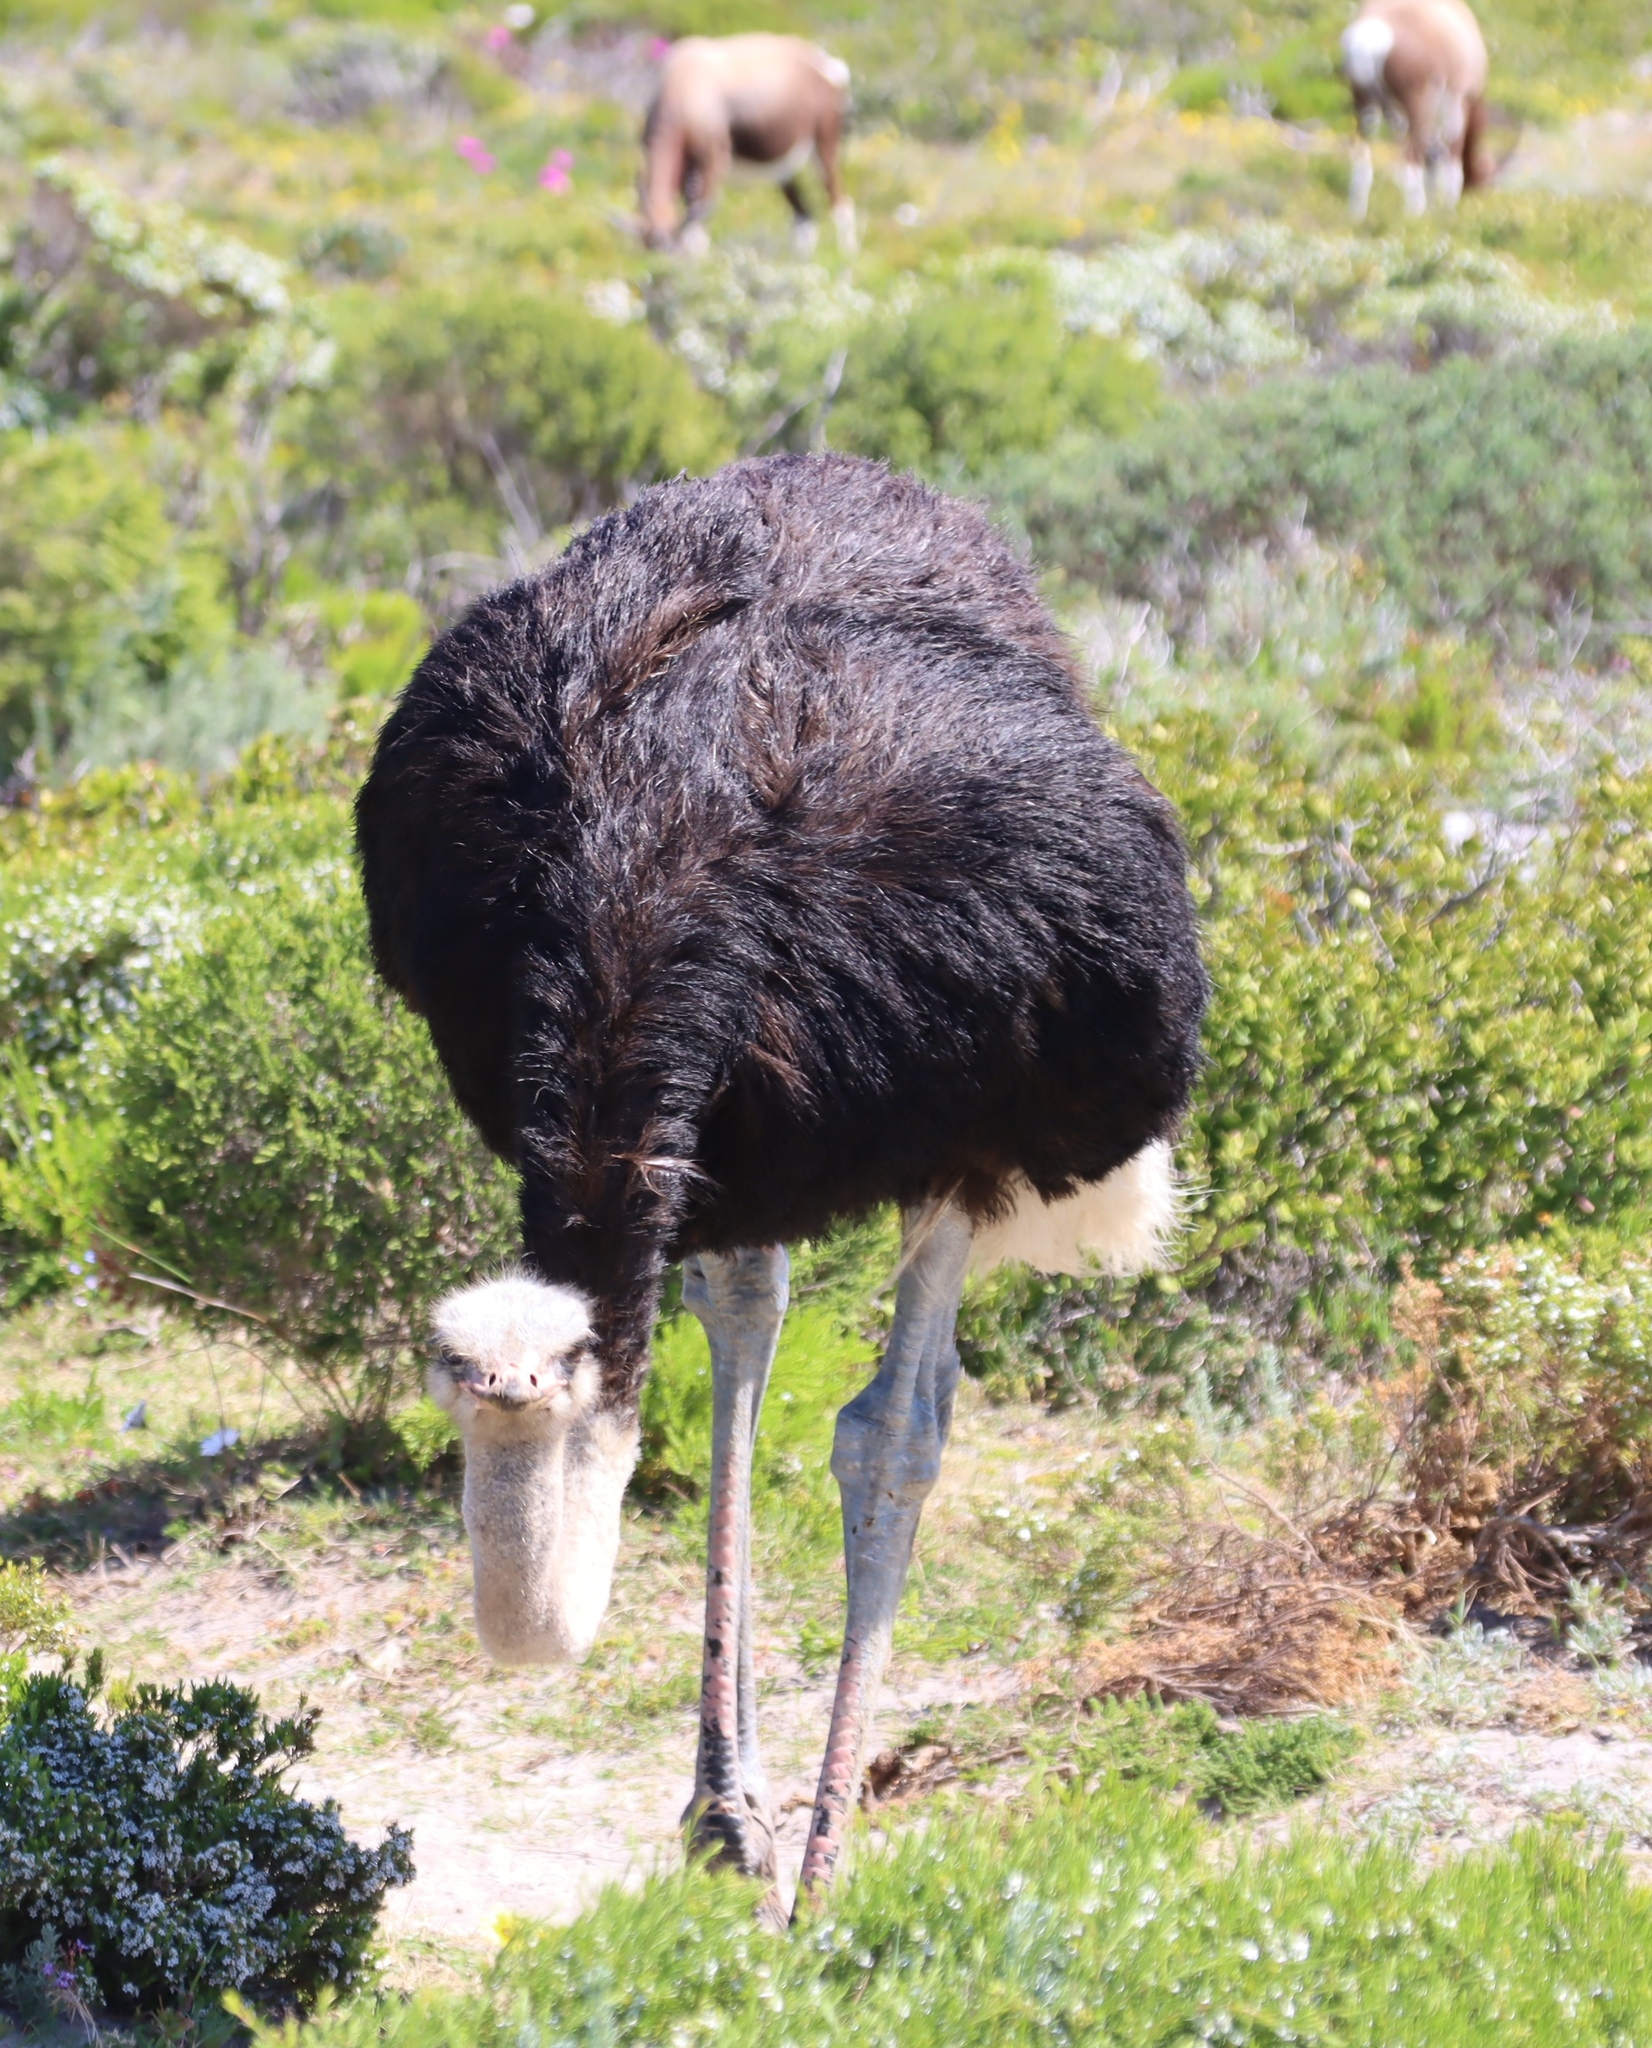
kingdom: Animalia
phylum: Chordata
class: Aves
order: Struthioniformes
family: Struthionidae
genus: Struthio
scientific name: Struthio camelus
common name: Common ostrich
